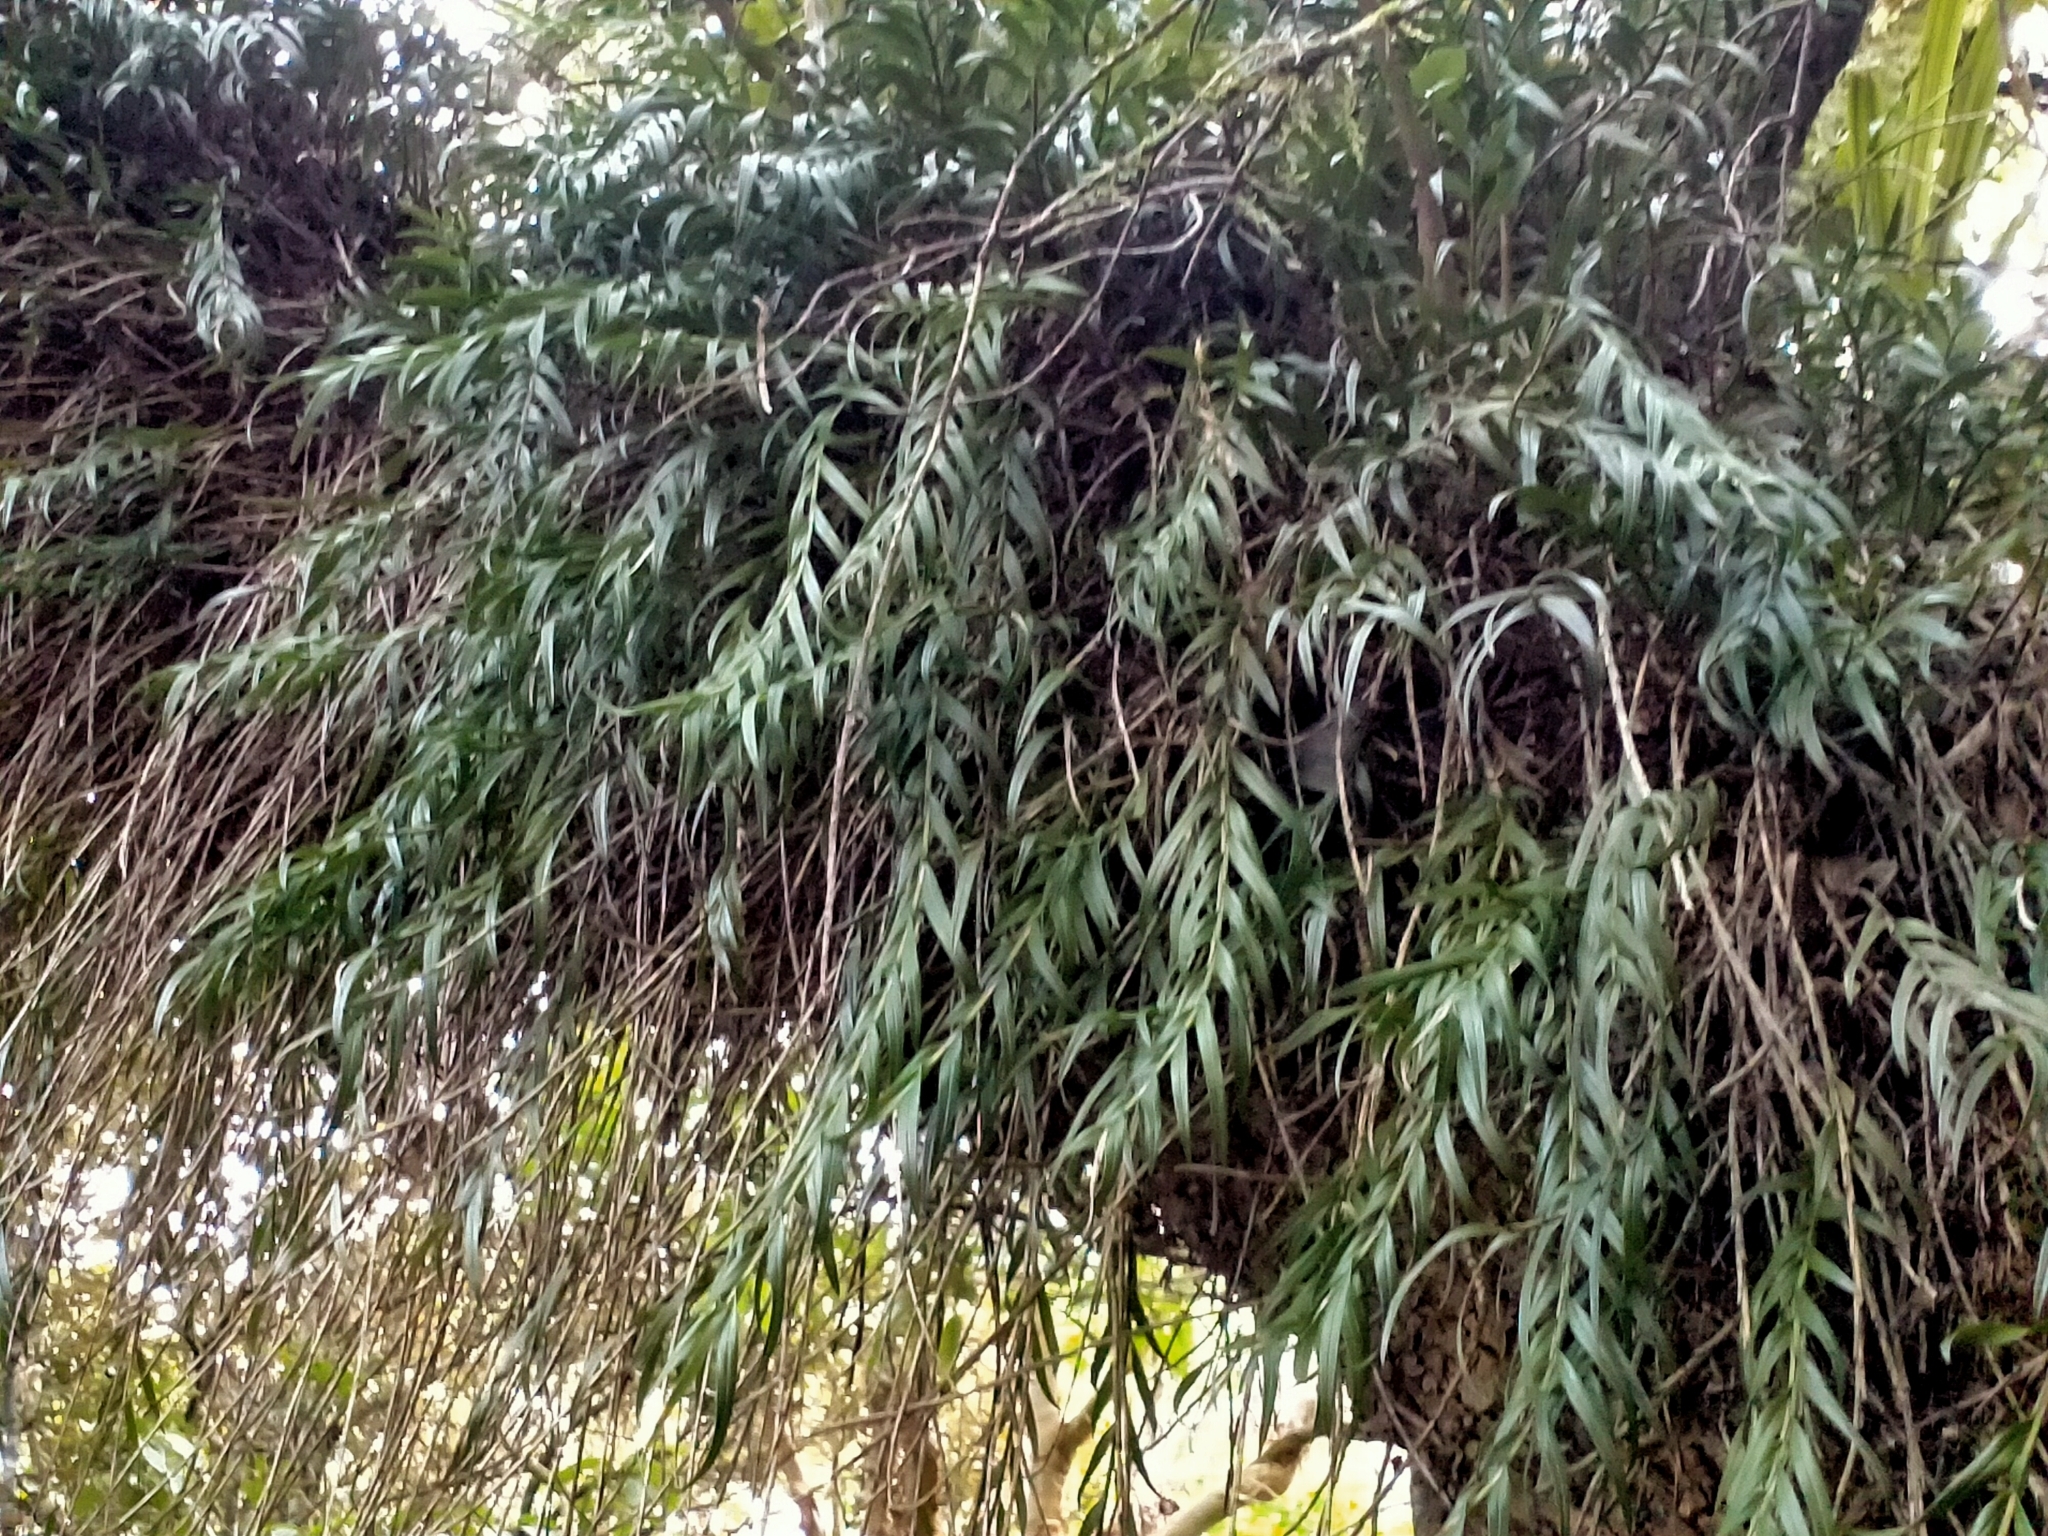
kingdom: Plantae
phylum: Tracheophyta
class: Liliopsida
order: Asparagales
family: Orchidaceae
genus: Earina
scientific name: Earina autumnalis
